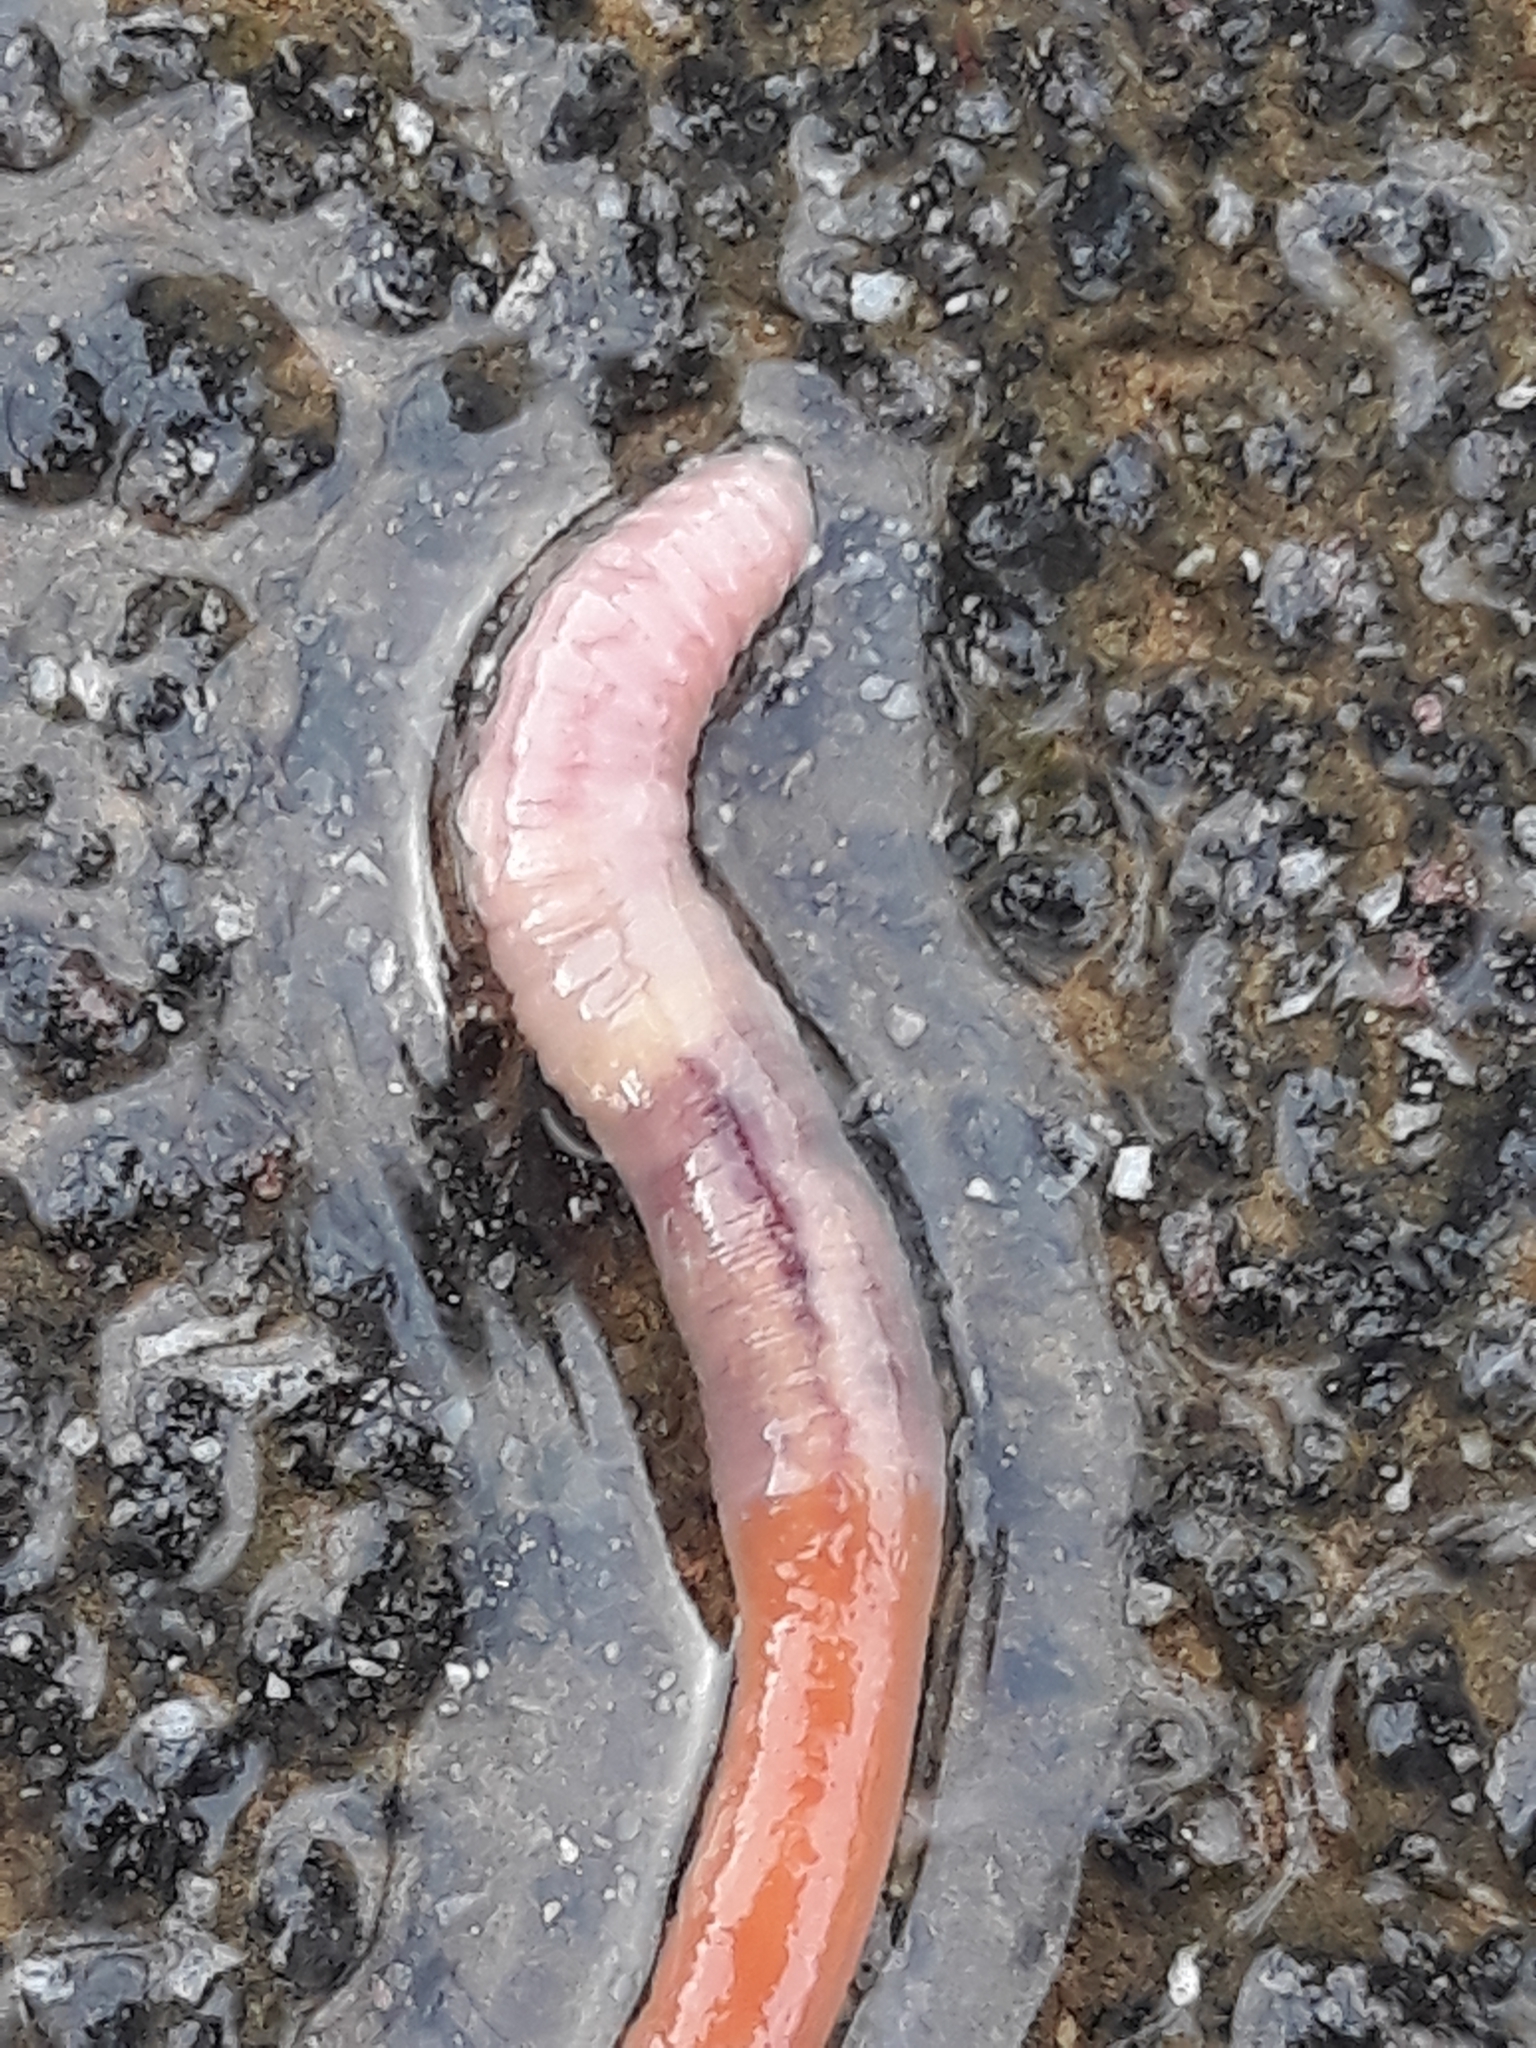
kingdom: Animalia
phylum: Annelida
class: Clitellata
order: Crassiclitellata
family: Lumbricidae
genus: Aporrectodea
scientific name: Aporrectodea rosea
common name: Pink soilworm
